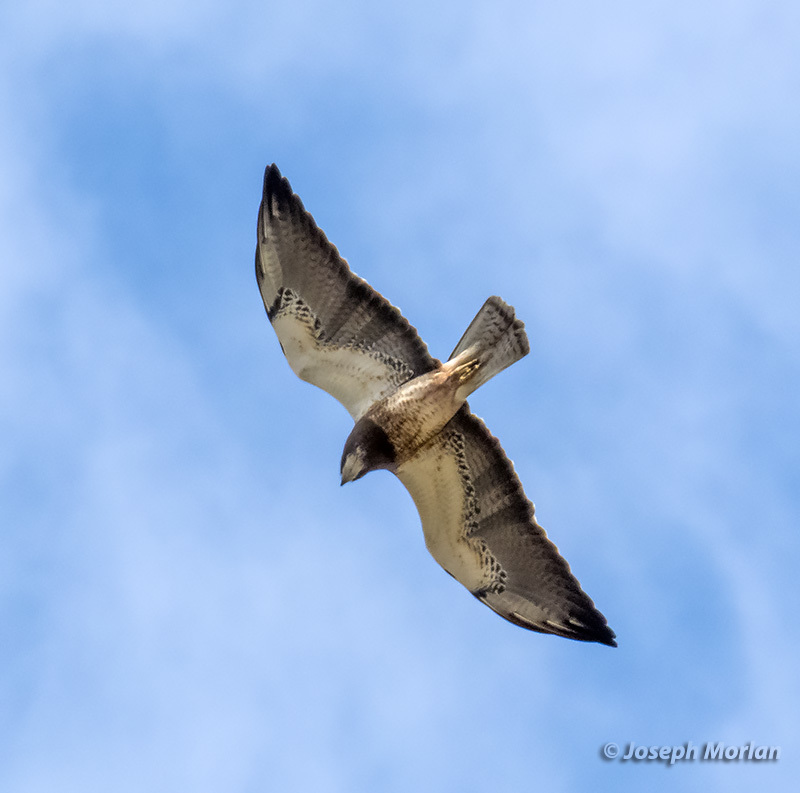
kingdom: Animalia
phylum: Chordata
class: Aves
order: Accipitriformes
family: Accipitridae
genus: Buteo
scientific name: Buteo swainsoni
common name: Swainson's hawk
